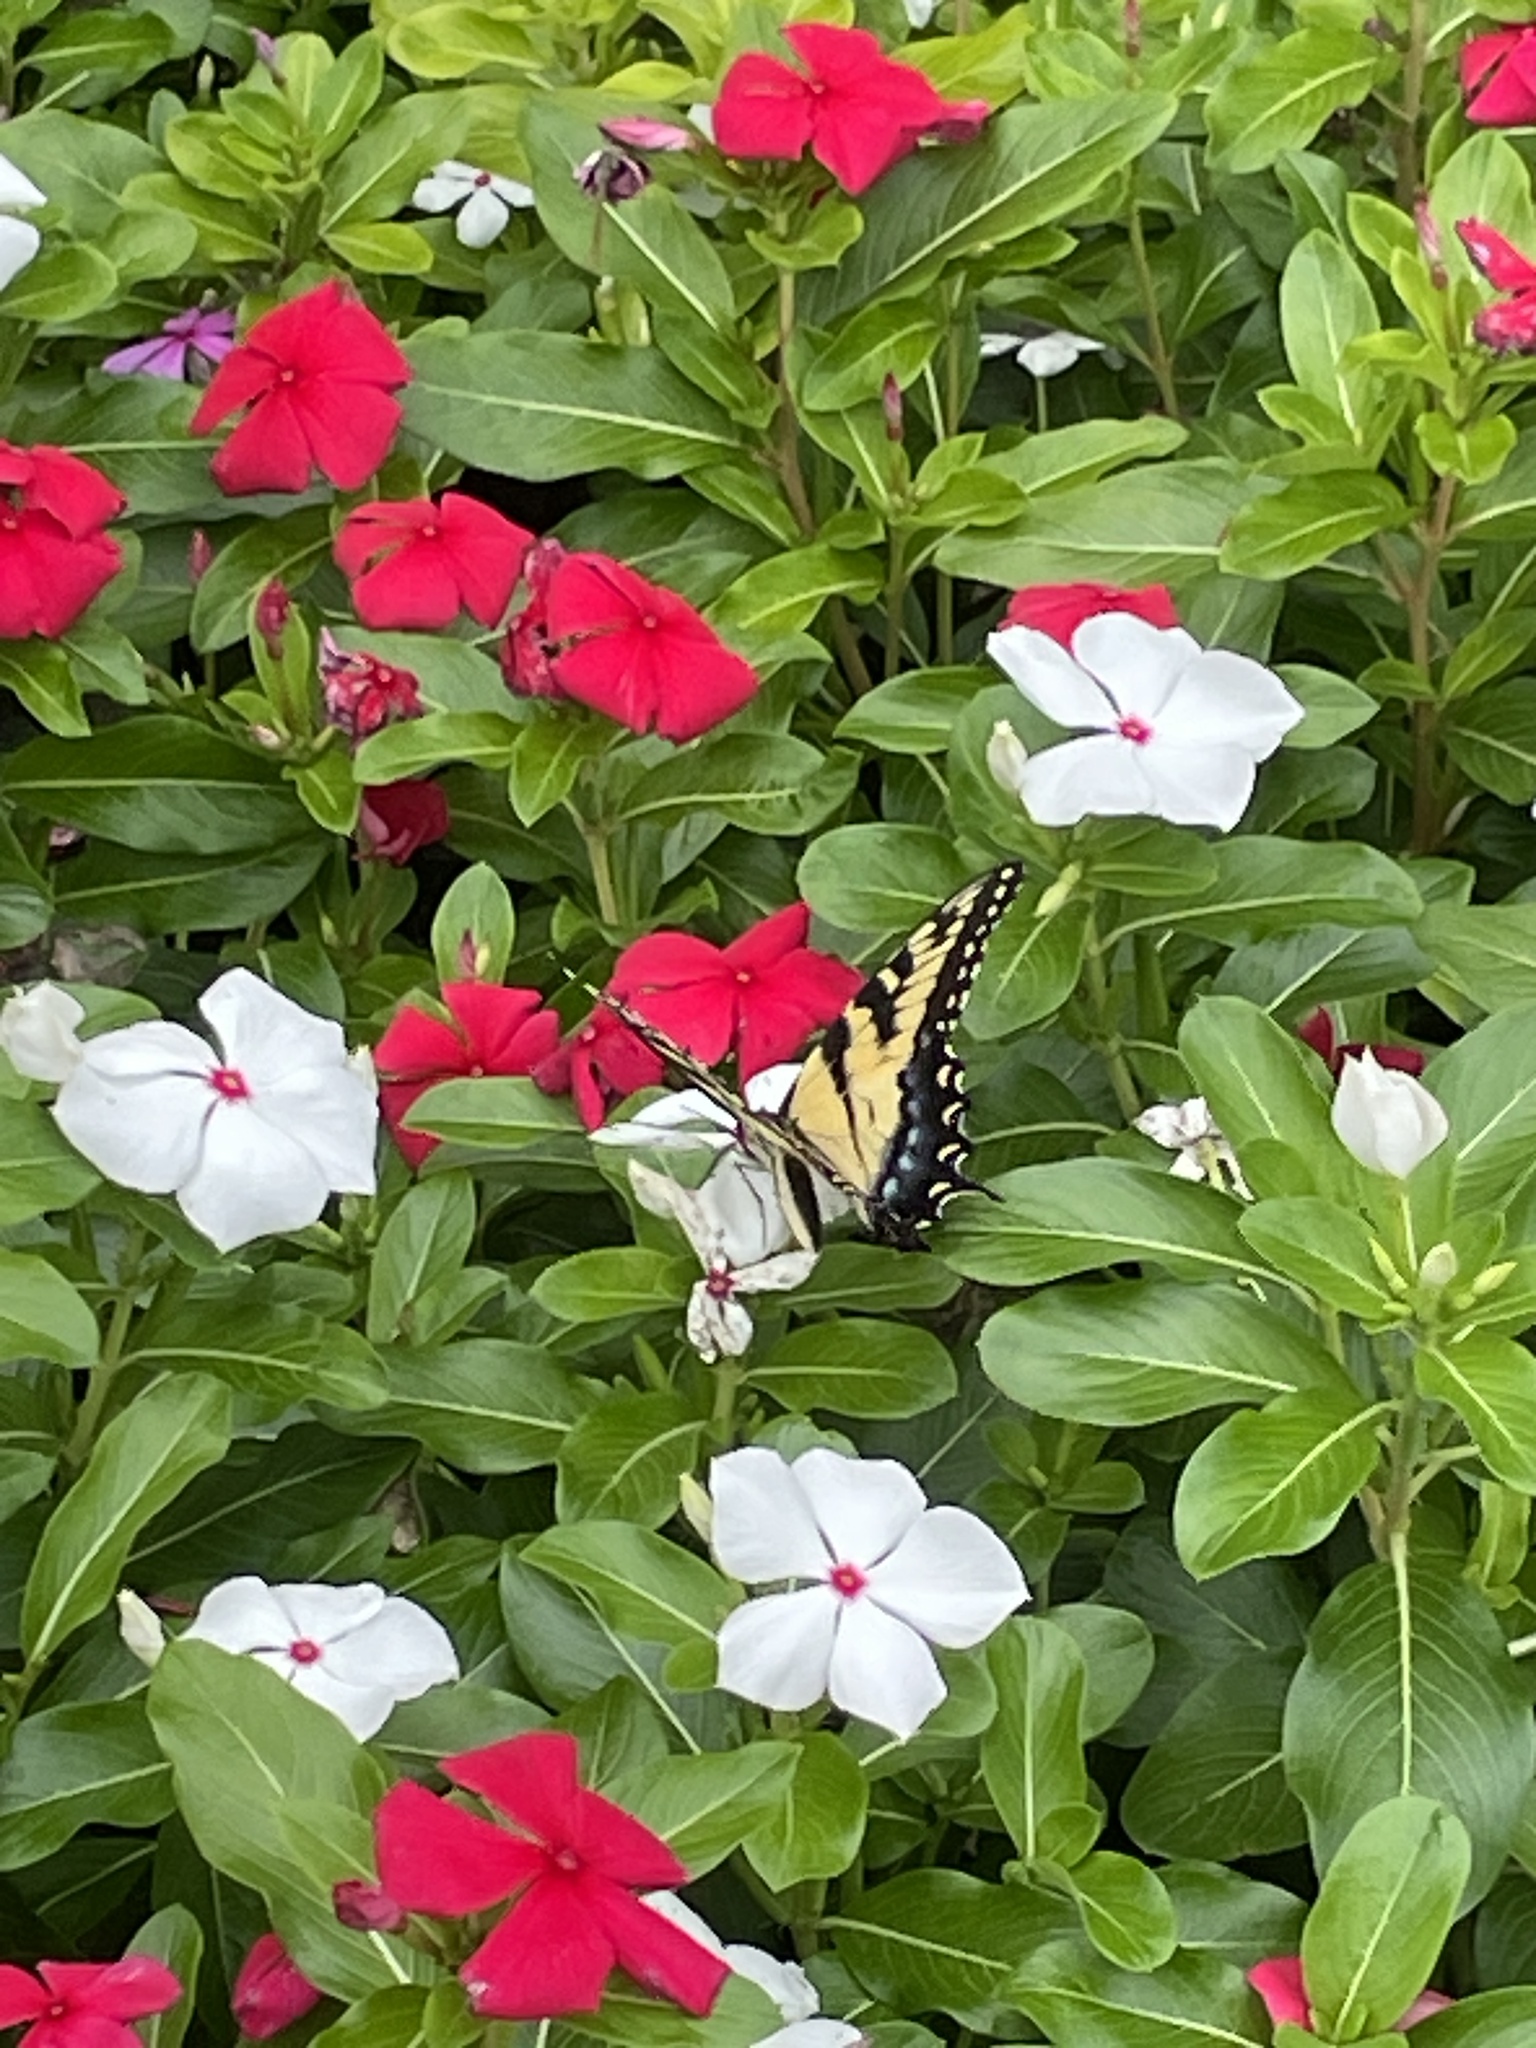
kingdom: Animalia
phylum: Arthropoda
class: Insecta
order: Lepidoptera
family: Papilionidae
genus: Papilio
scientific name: Papilio glaucus
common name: Tiger swallowtail
